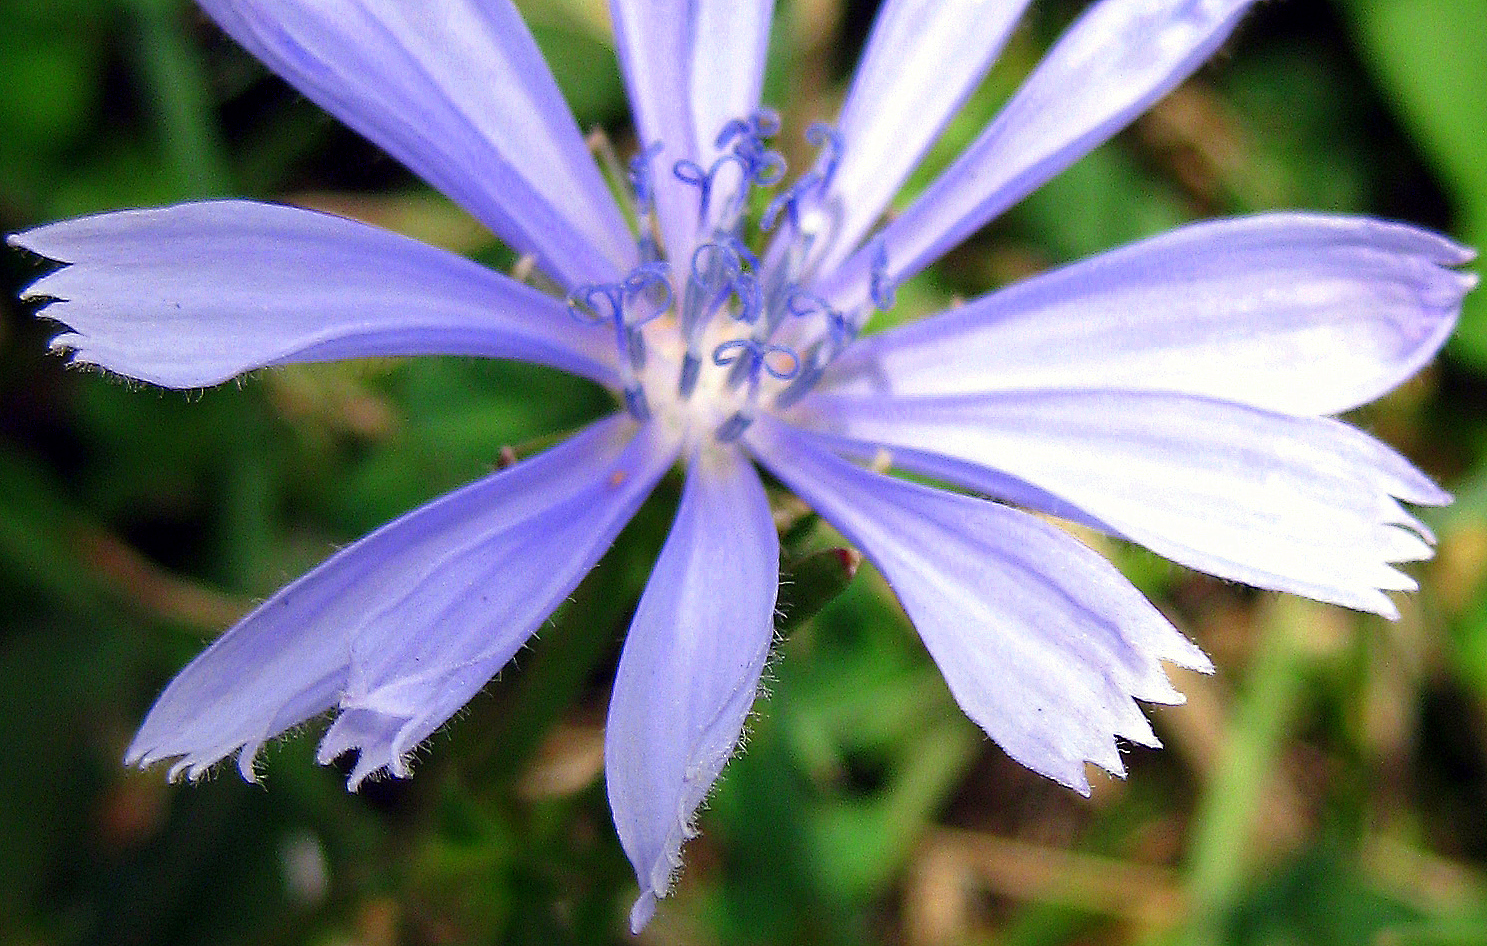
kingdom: Plantae
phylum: Tracheophyta
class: Magnoliopsida
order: Asterales
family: Asteraceae
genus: Cichorium
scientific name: Cichorium intybus
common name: Chicory
